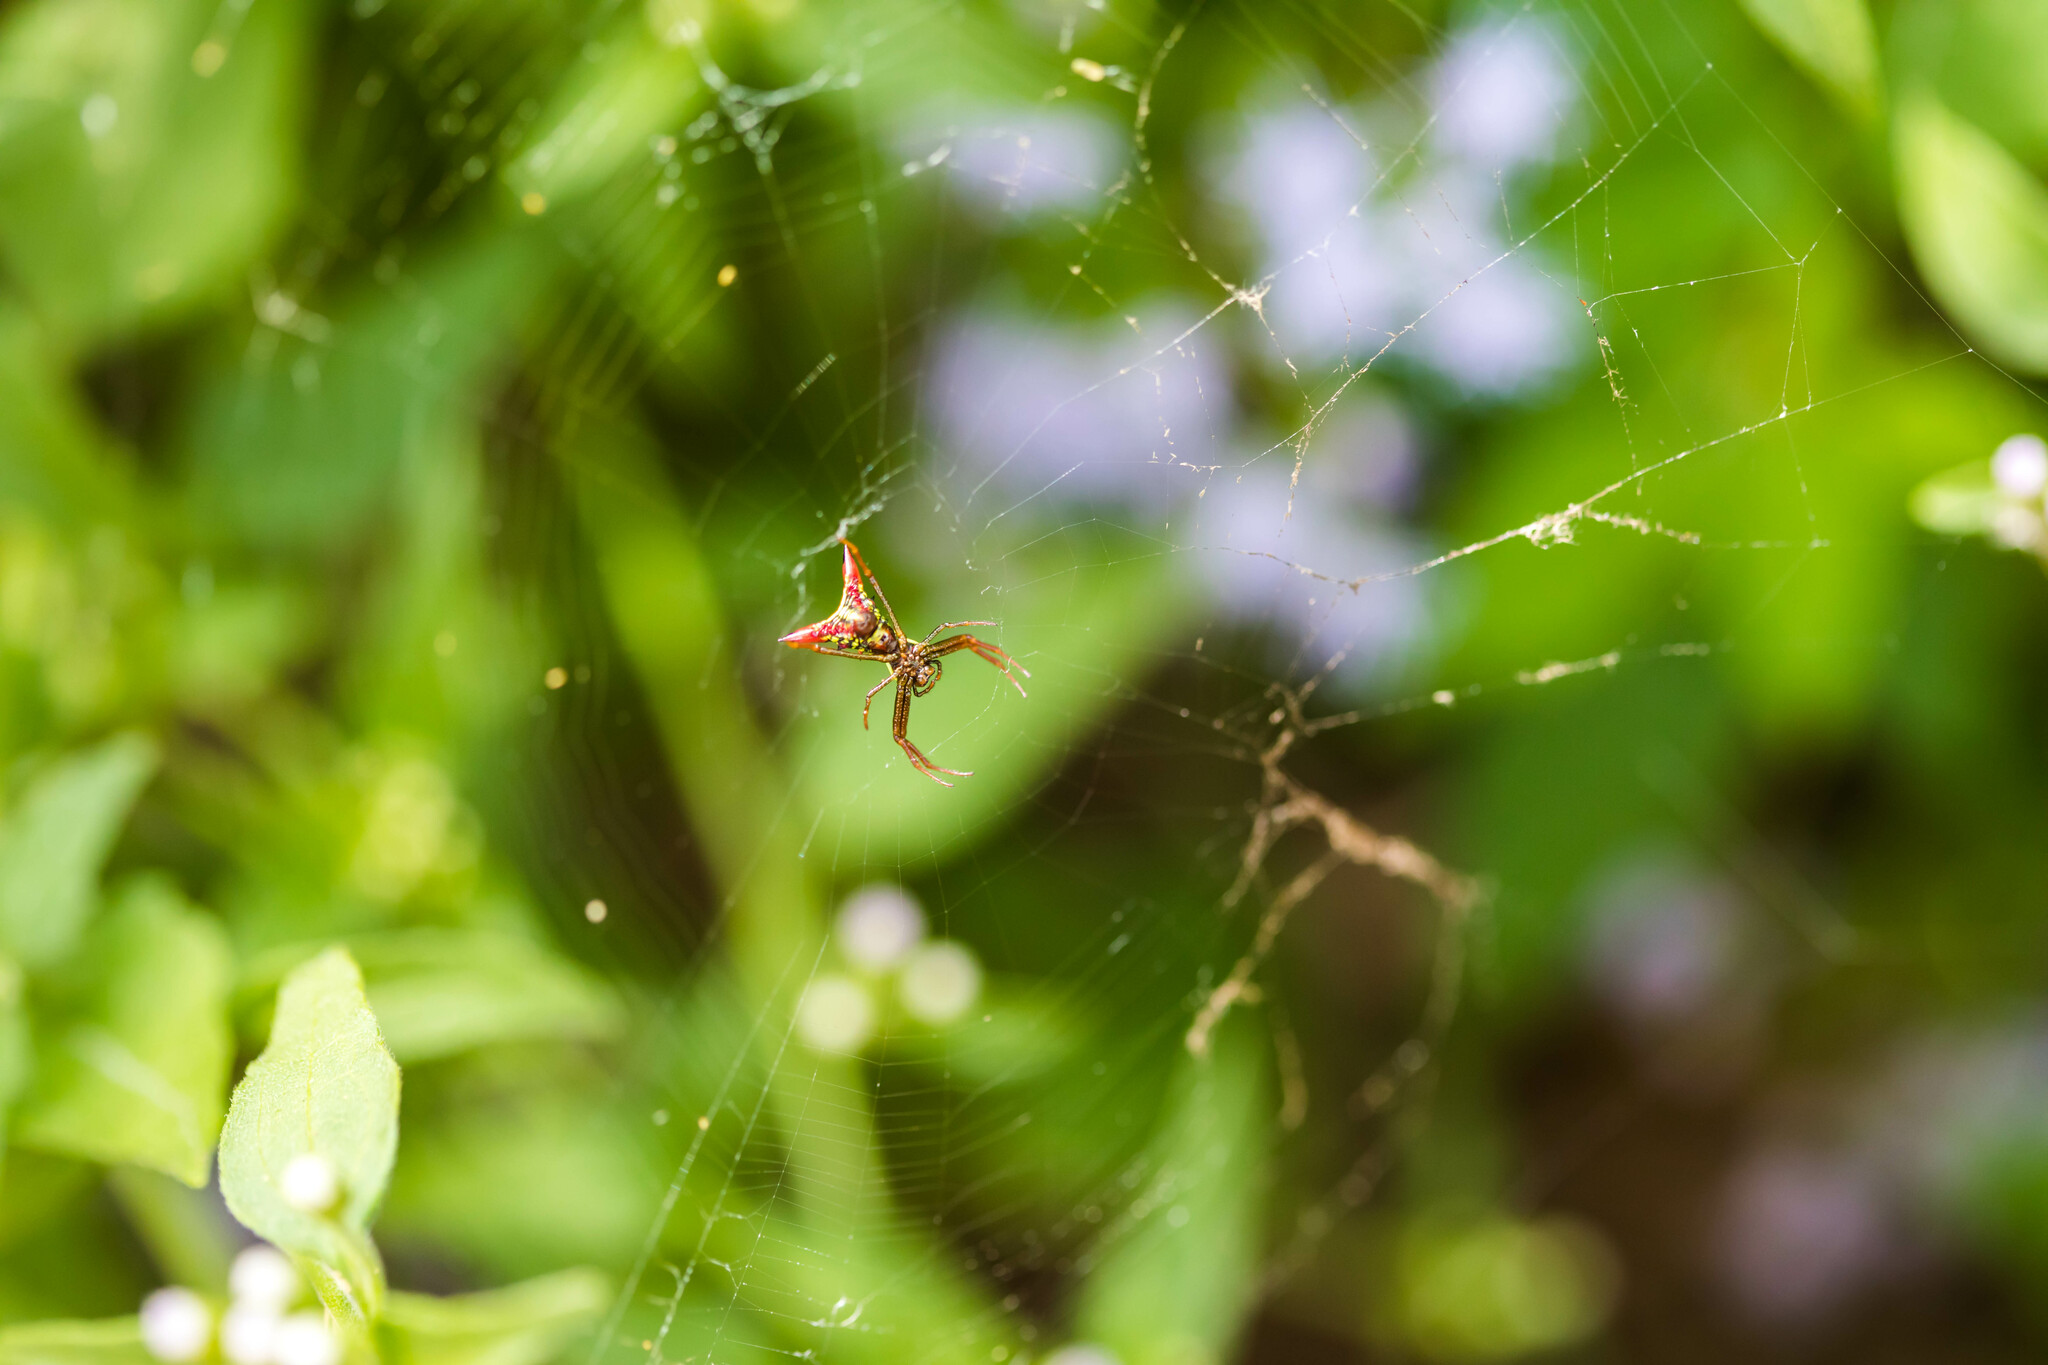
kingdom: Animalia
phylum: Arthropoda
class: Arachnida
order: Araneae
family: Araneidae
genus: Micrathena
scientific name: Micrathena sagittata
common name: Orb weavers
